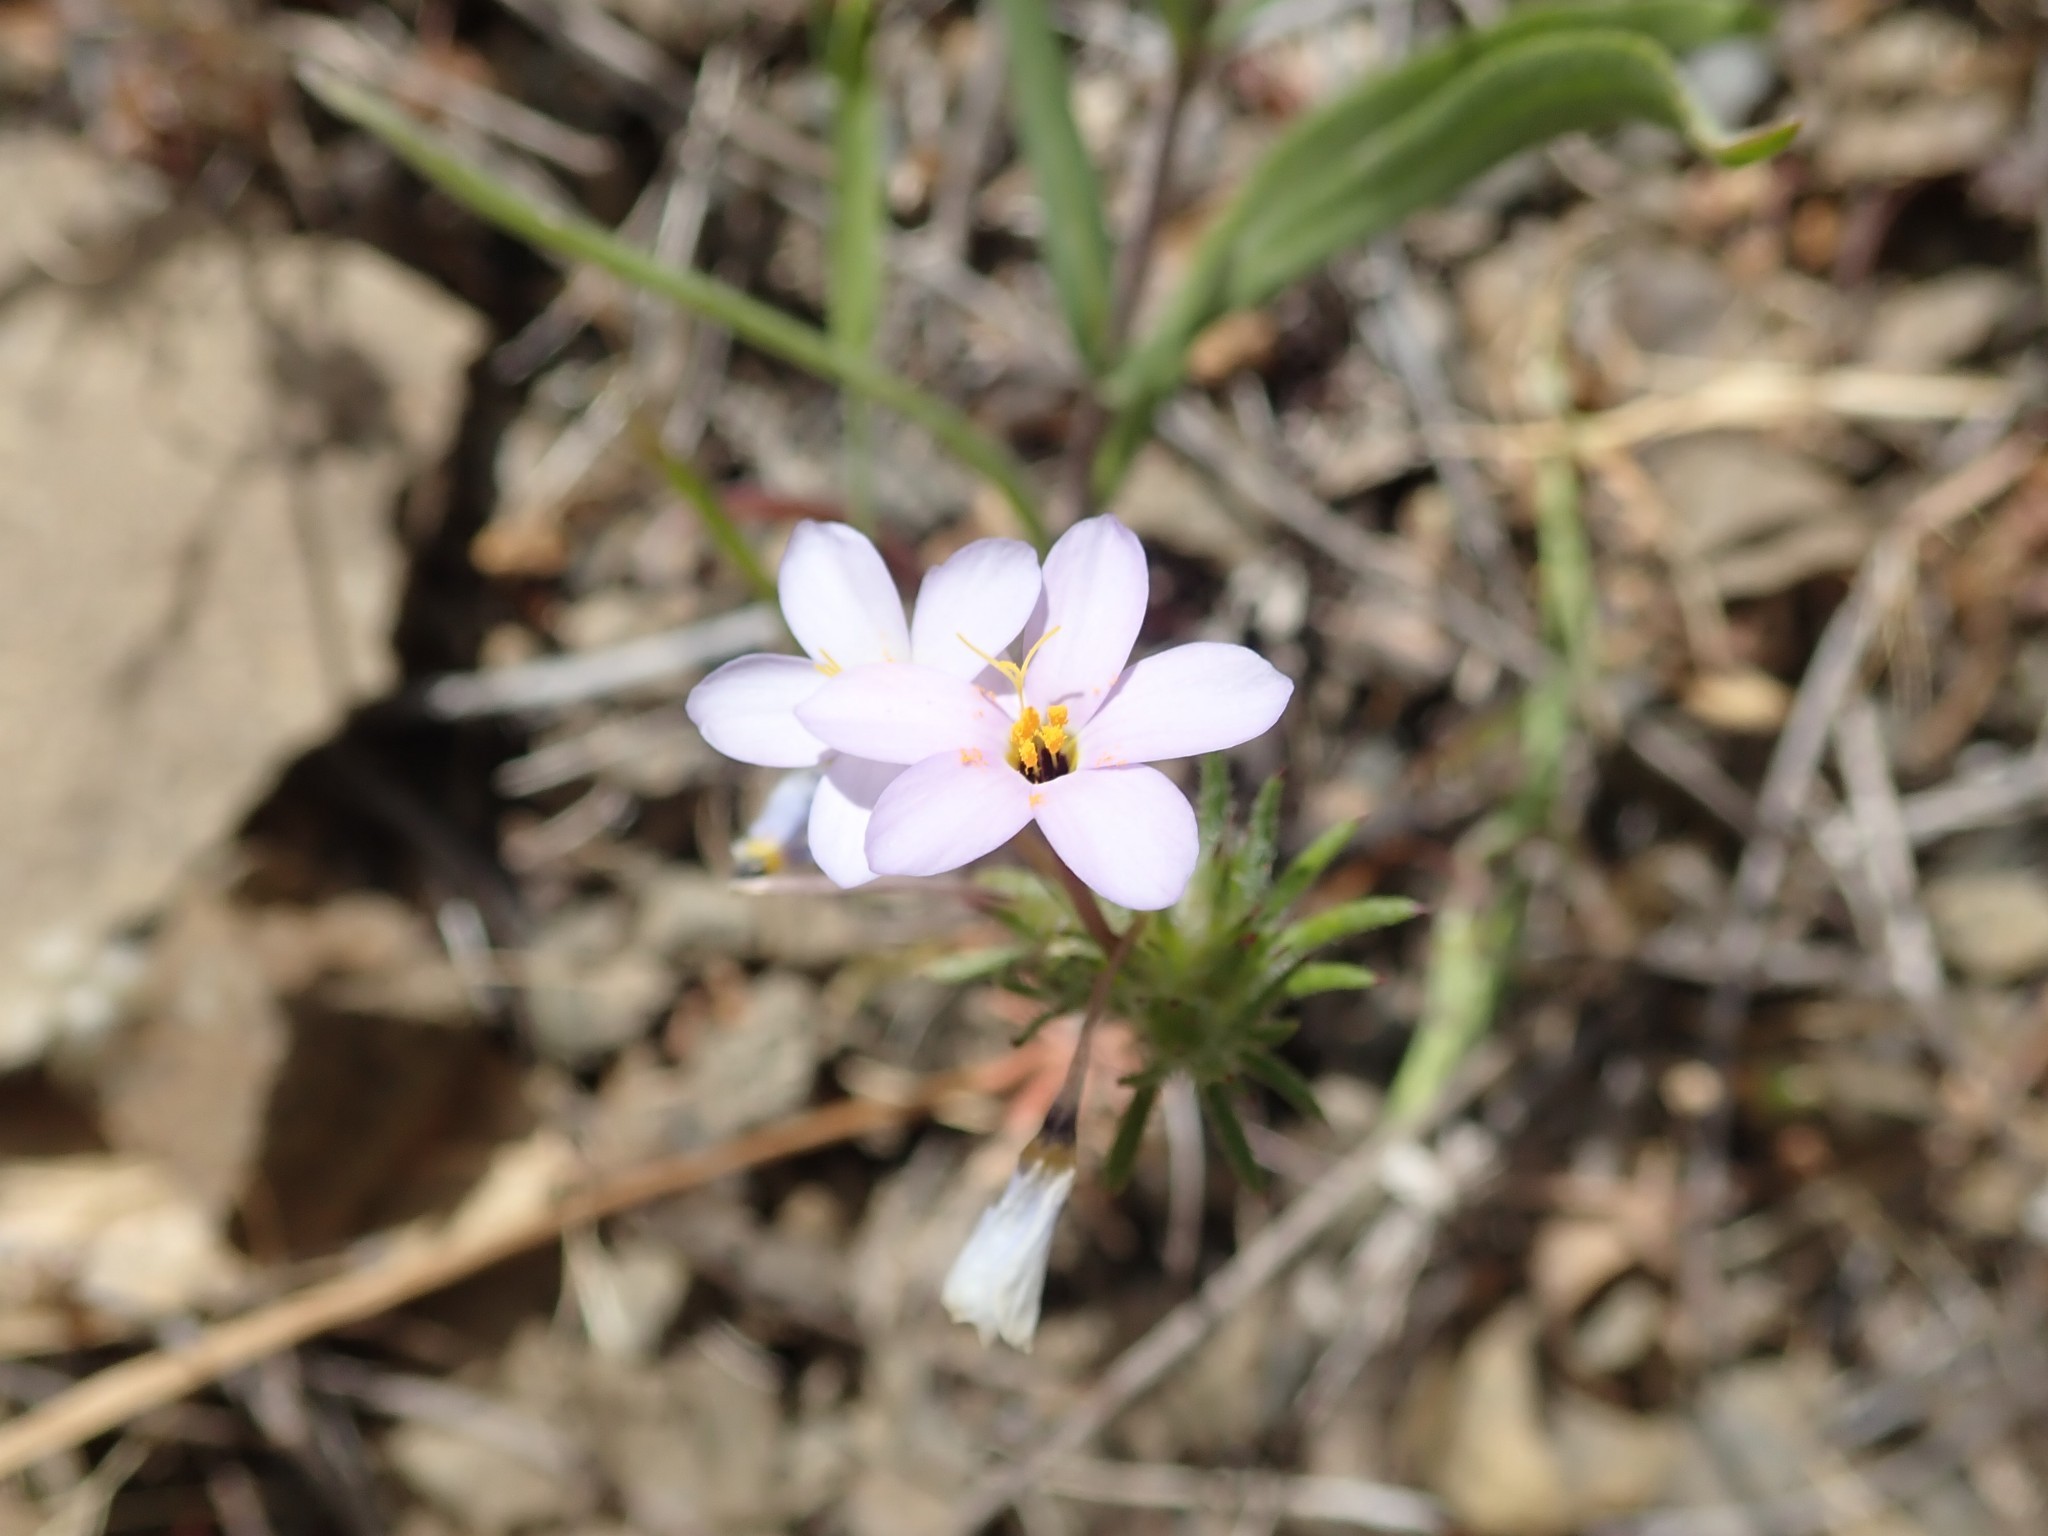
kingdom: Plantae
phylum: Tracheophyta
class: Magnoliopsida
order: Ericales
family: Polemoniaceae
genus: Leptosiphon
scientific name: Leptosiphon androsaceus
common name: False babystars
